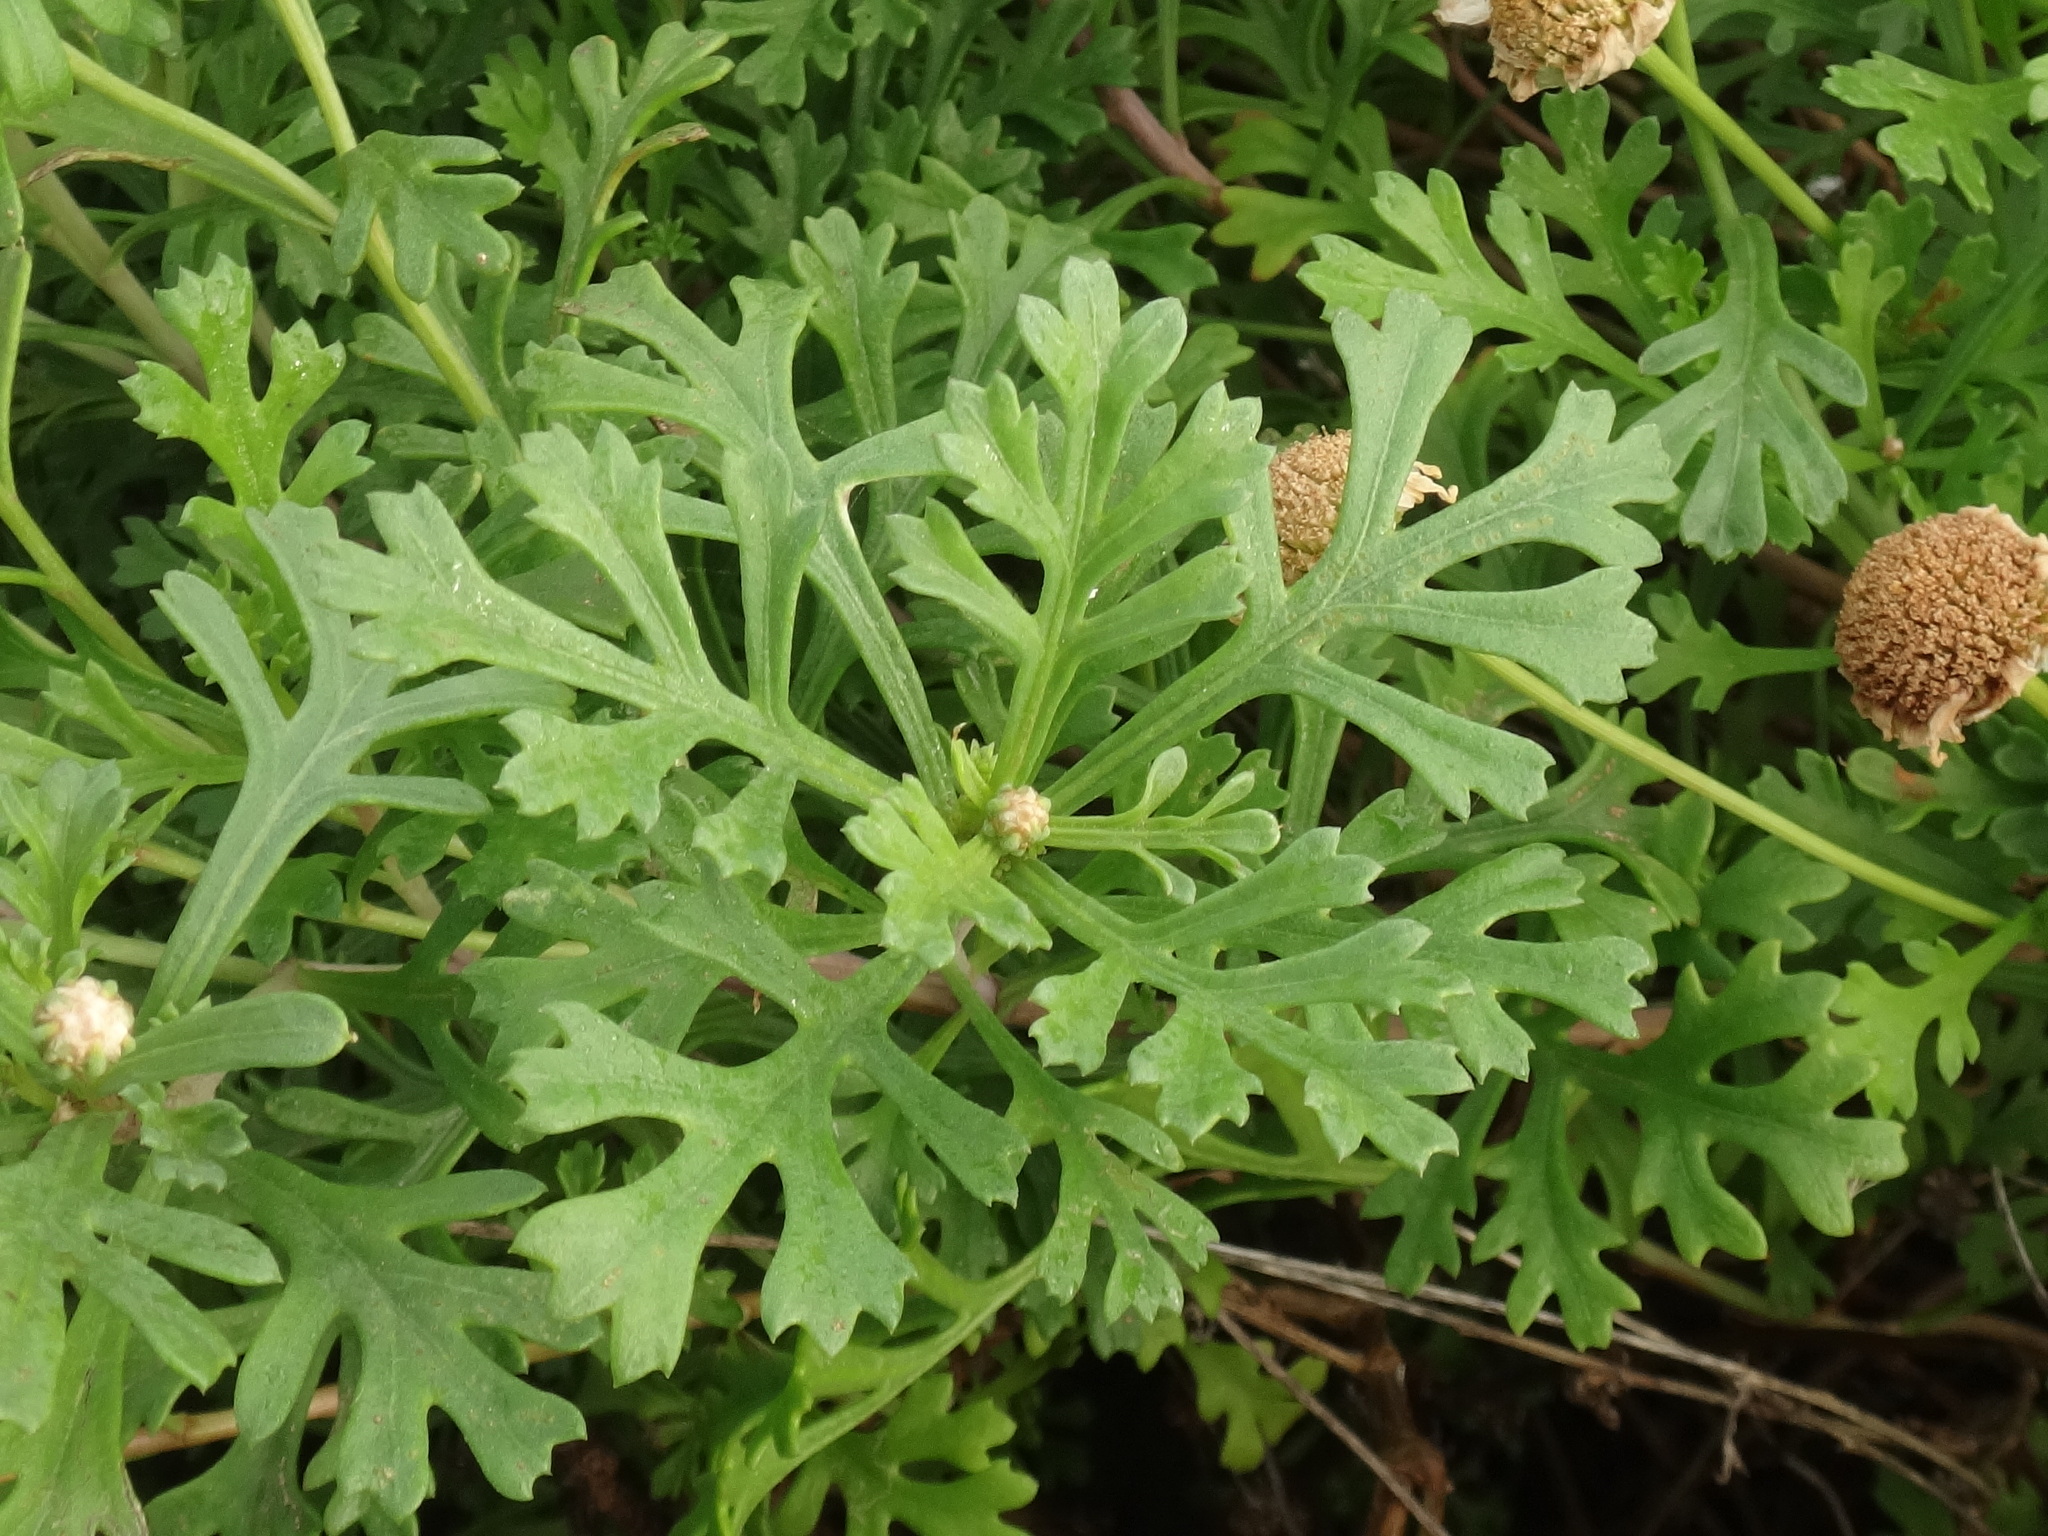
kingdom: Plantae
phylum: Tracheophyta
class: Magnoliopsida
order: Asterales
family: Asteraceae
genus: Argyranthemum
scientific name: Argyranthemum haouarytheum
